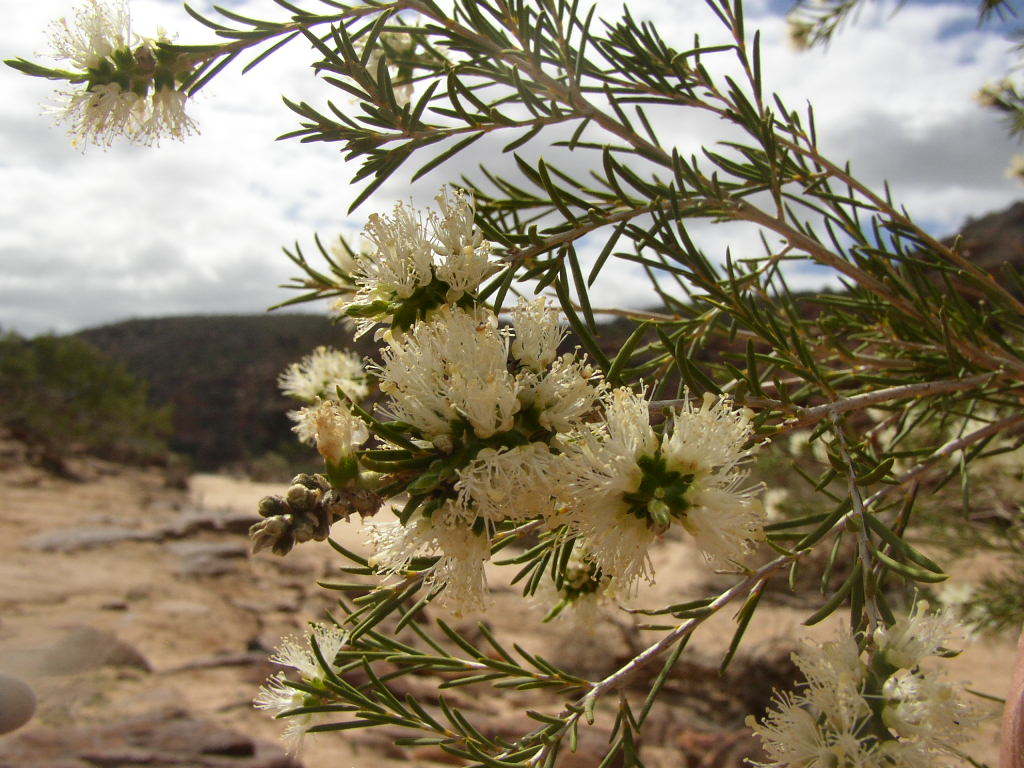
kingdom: Plantae
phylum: Tracheophyta
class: Magnoliopsida
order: Myrtales
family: Myrtaceae
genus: Melaleuca
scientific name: Melaleuca rhaphiophylla
